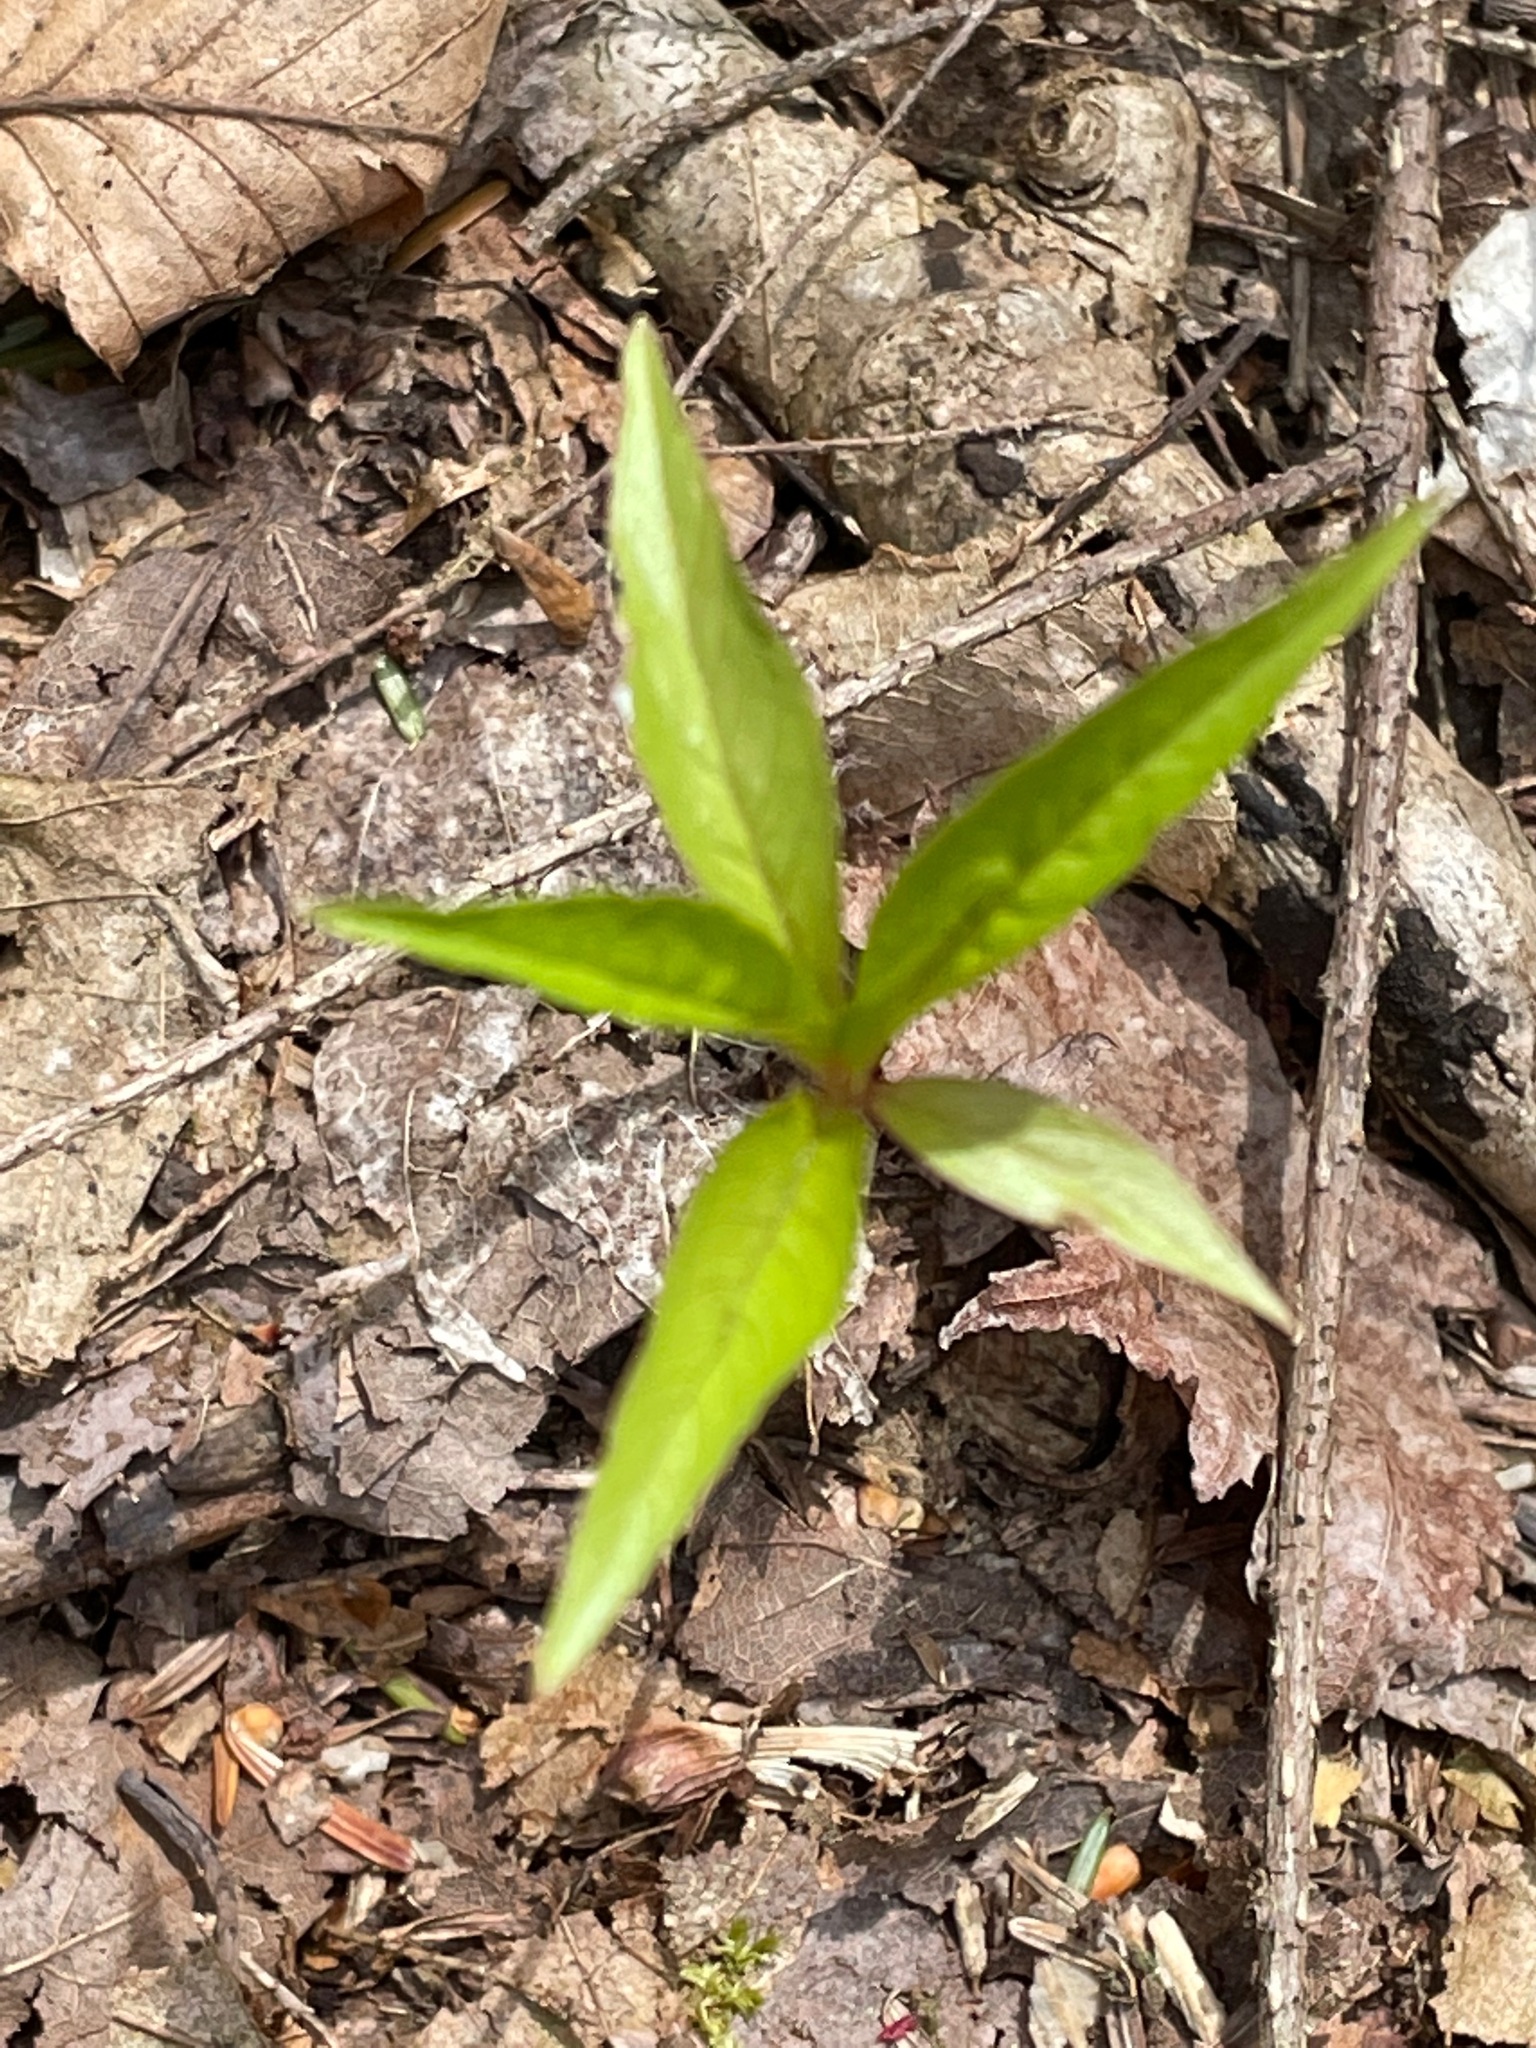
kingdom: Plantae
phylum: Tracheophyta
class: Magnoliopsida
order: Ericales
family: Primulaceae
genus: Lysimachia
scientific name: Lysimachia borealis
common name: American starflower
